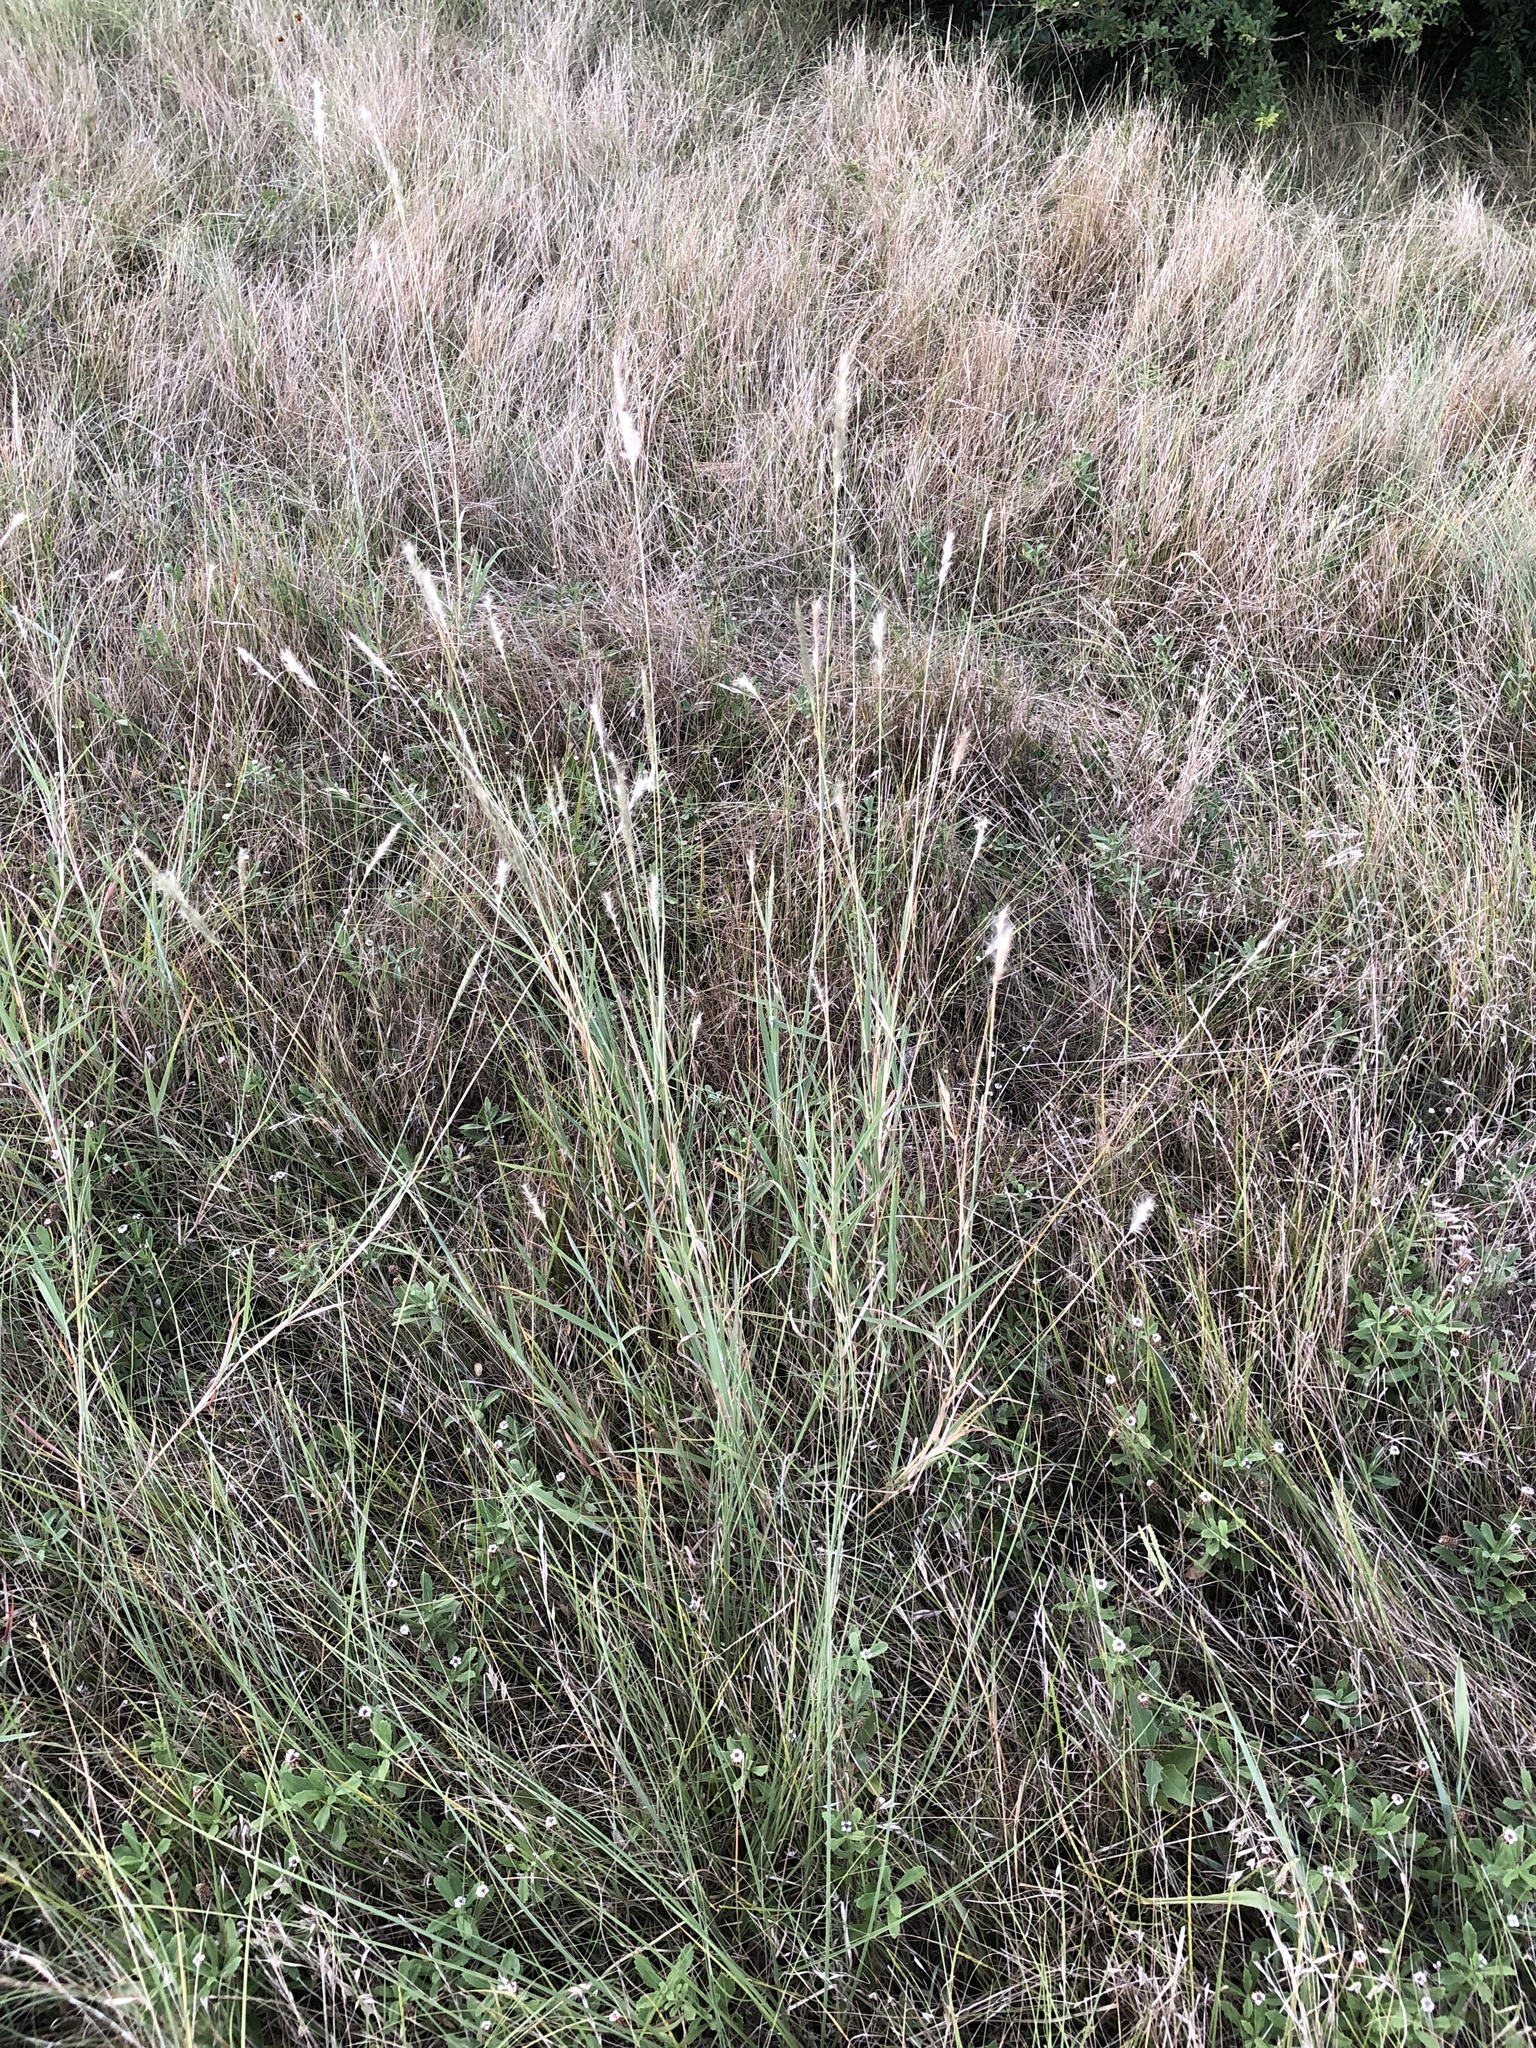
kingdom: Plantae
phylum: Tracheophyta
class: Liliopsida
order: Poales
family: Poaceae
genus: Bothriochloa
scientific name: Bothriochloa torreyana
